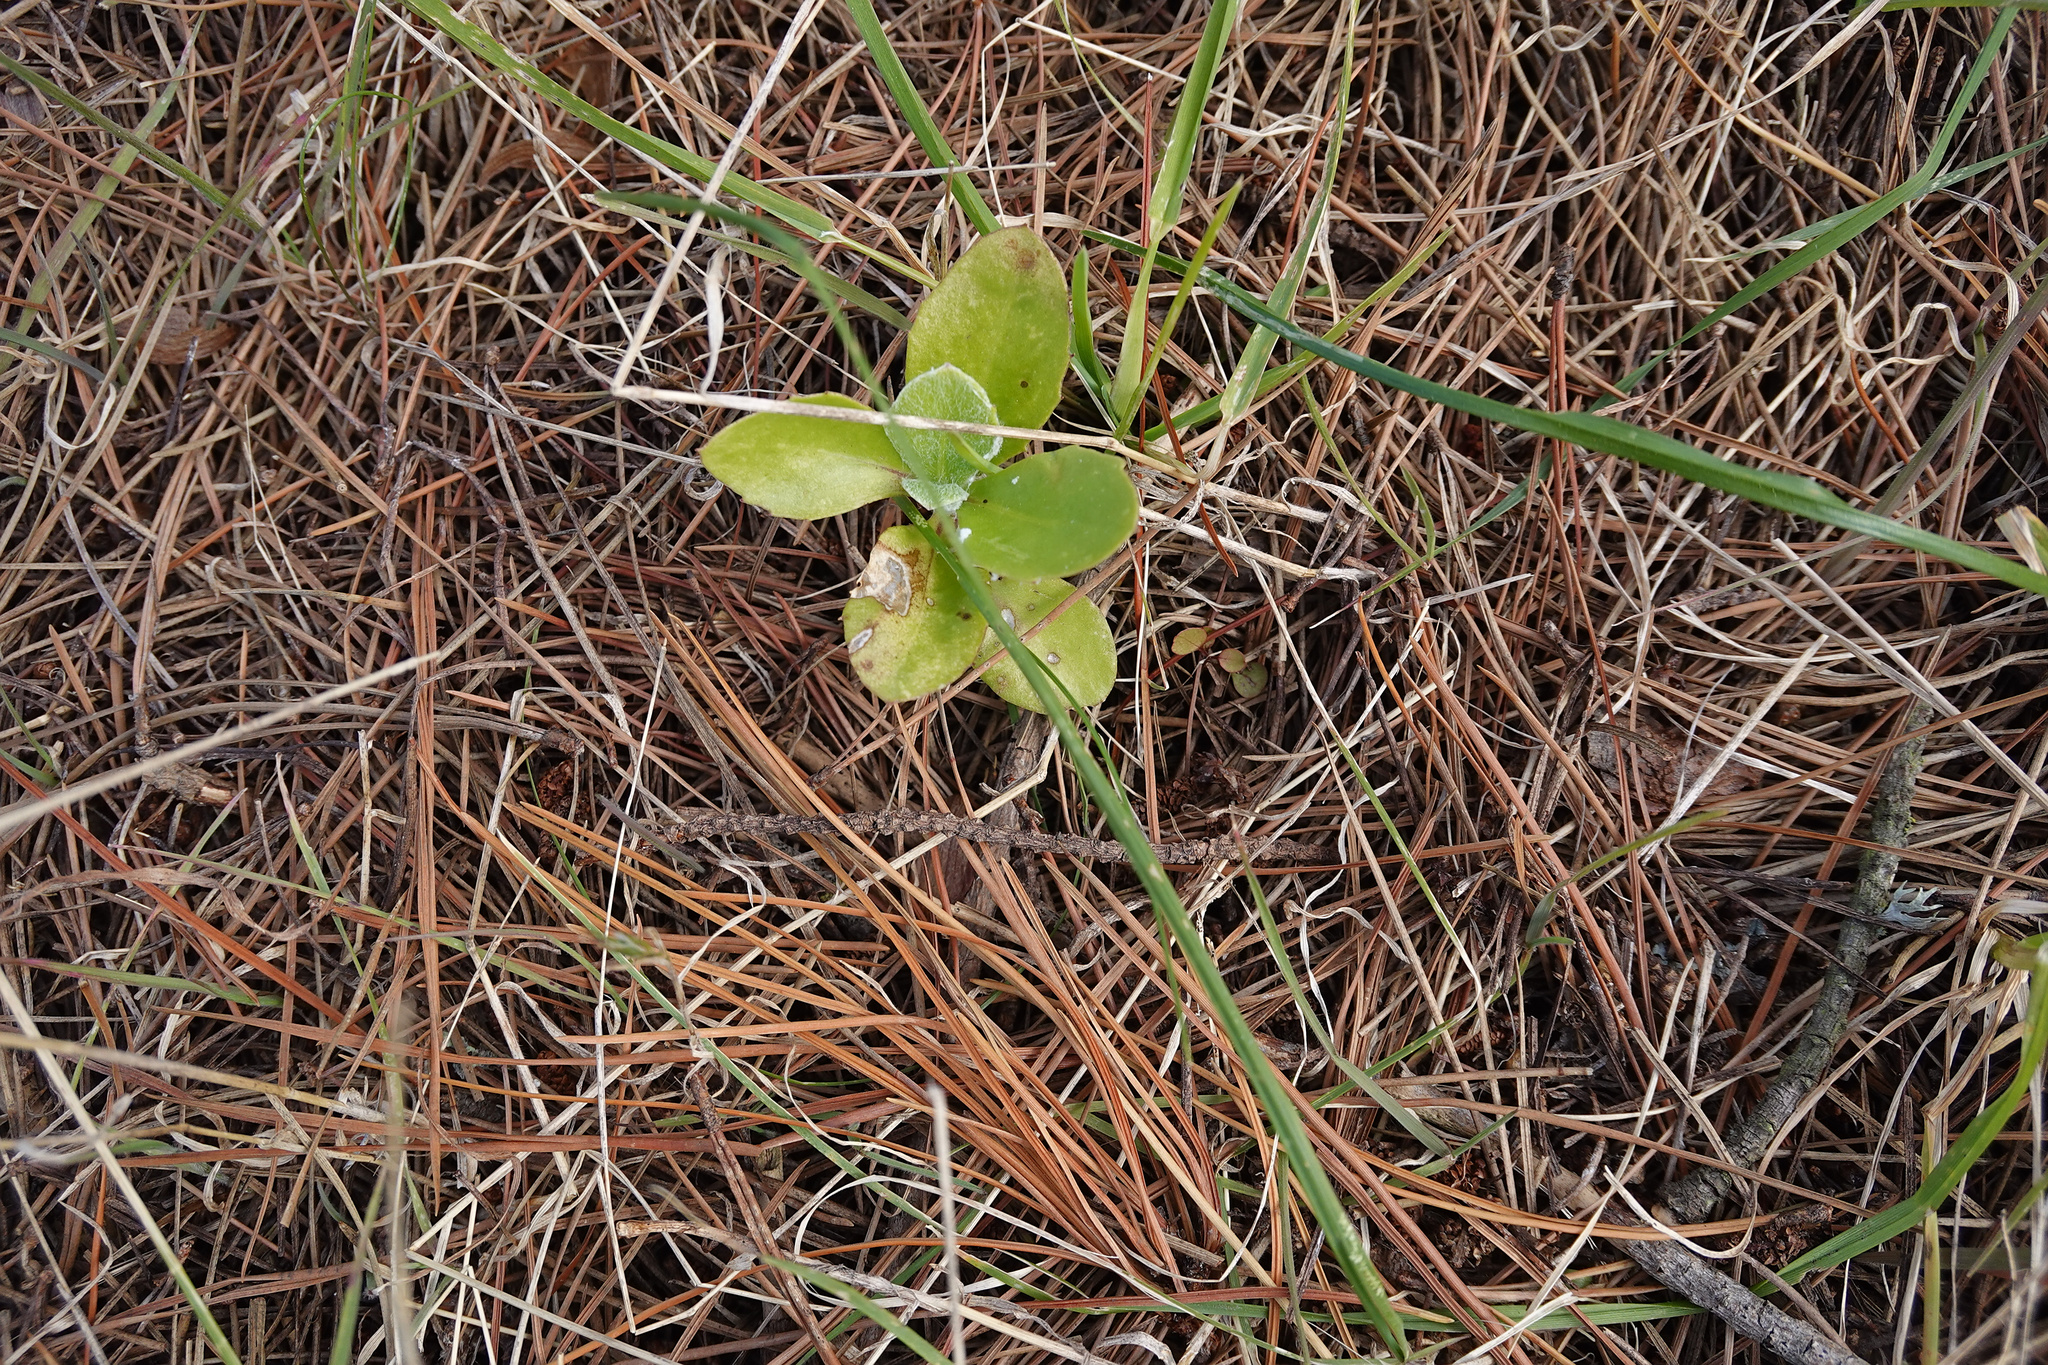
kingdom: Plantae
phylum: Tracheophyta
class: Magnoliopsida
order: Asterales
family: Asteraceae
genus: Osteospermum
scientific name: Osteospermum moniliferum
